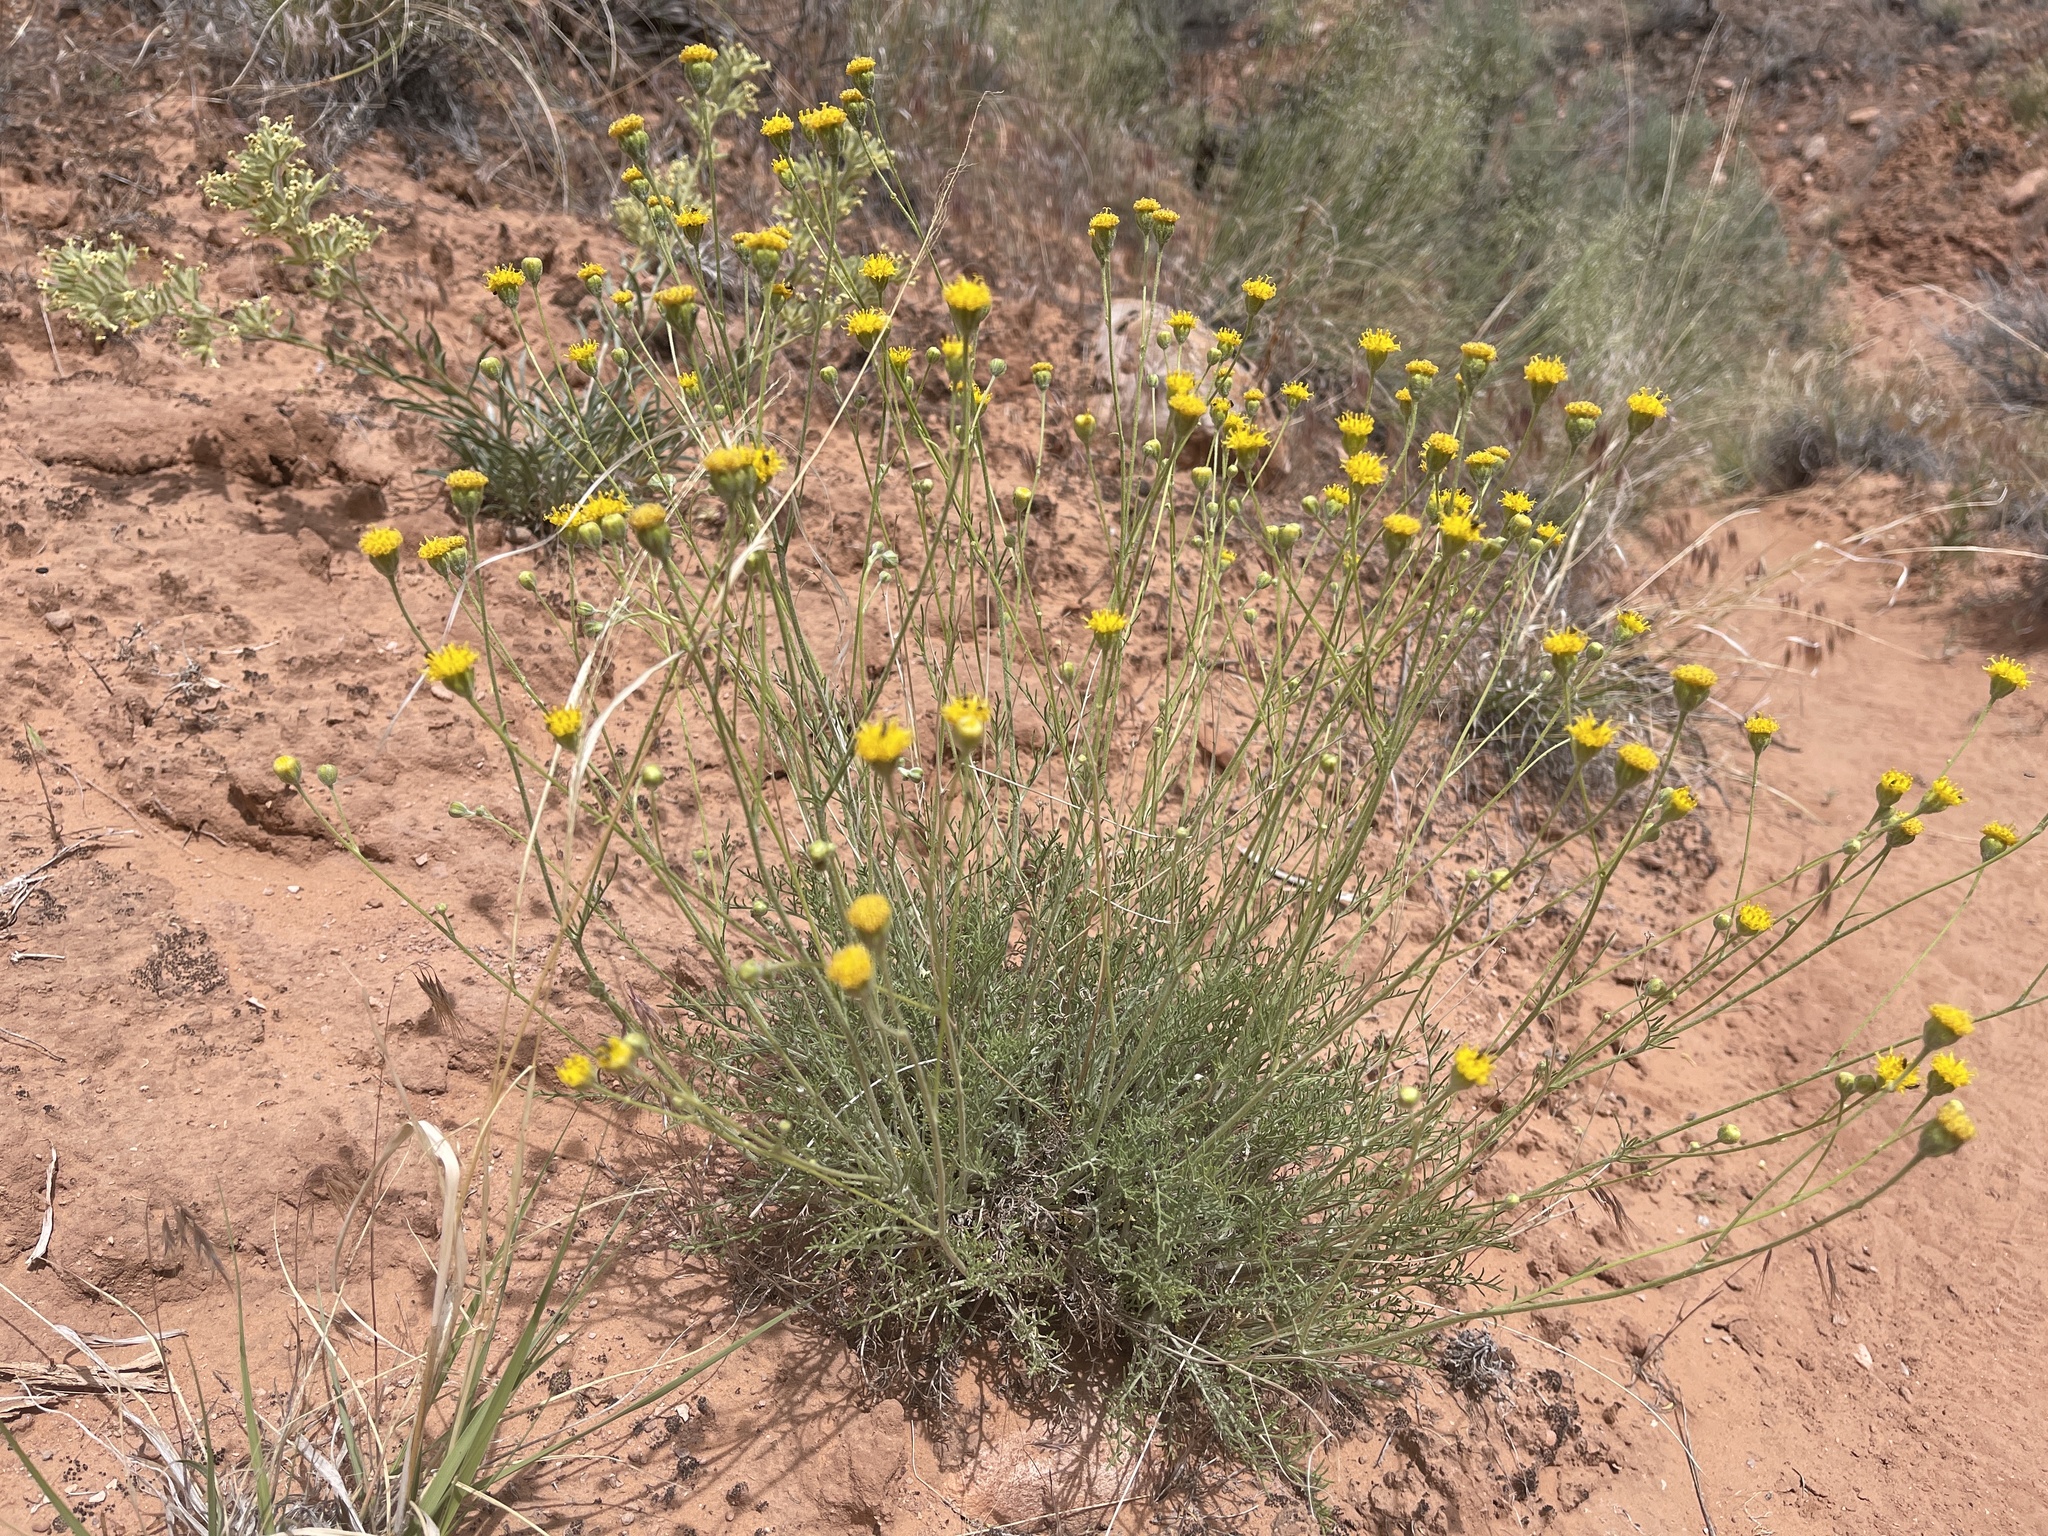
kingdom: Plantae
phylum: Tracheophyta
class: Magnoliopsida
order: Asterales
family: Asteraceae
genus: Hymenopappus
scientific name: Hymenopappus filifolius
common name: Columbia cutleaf
